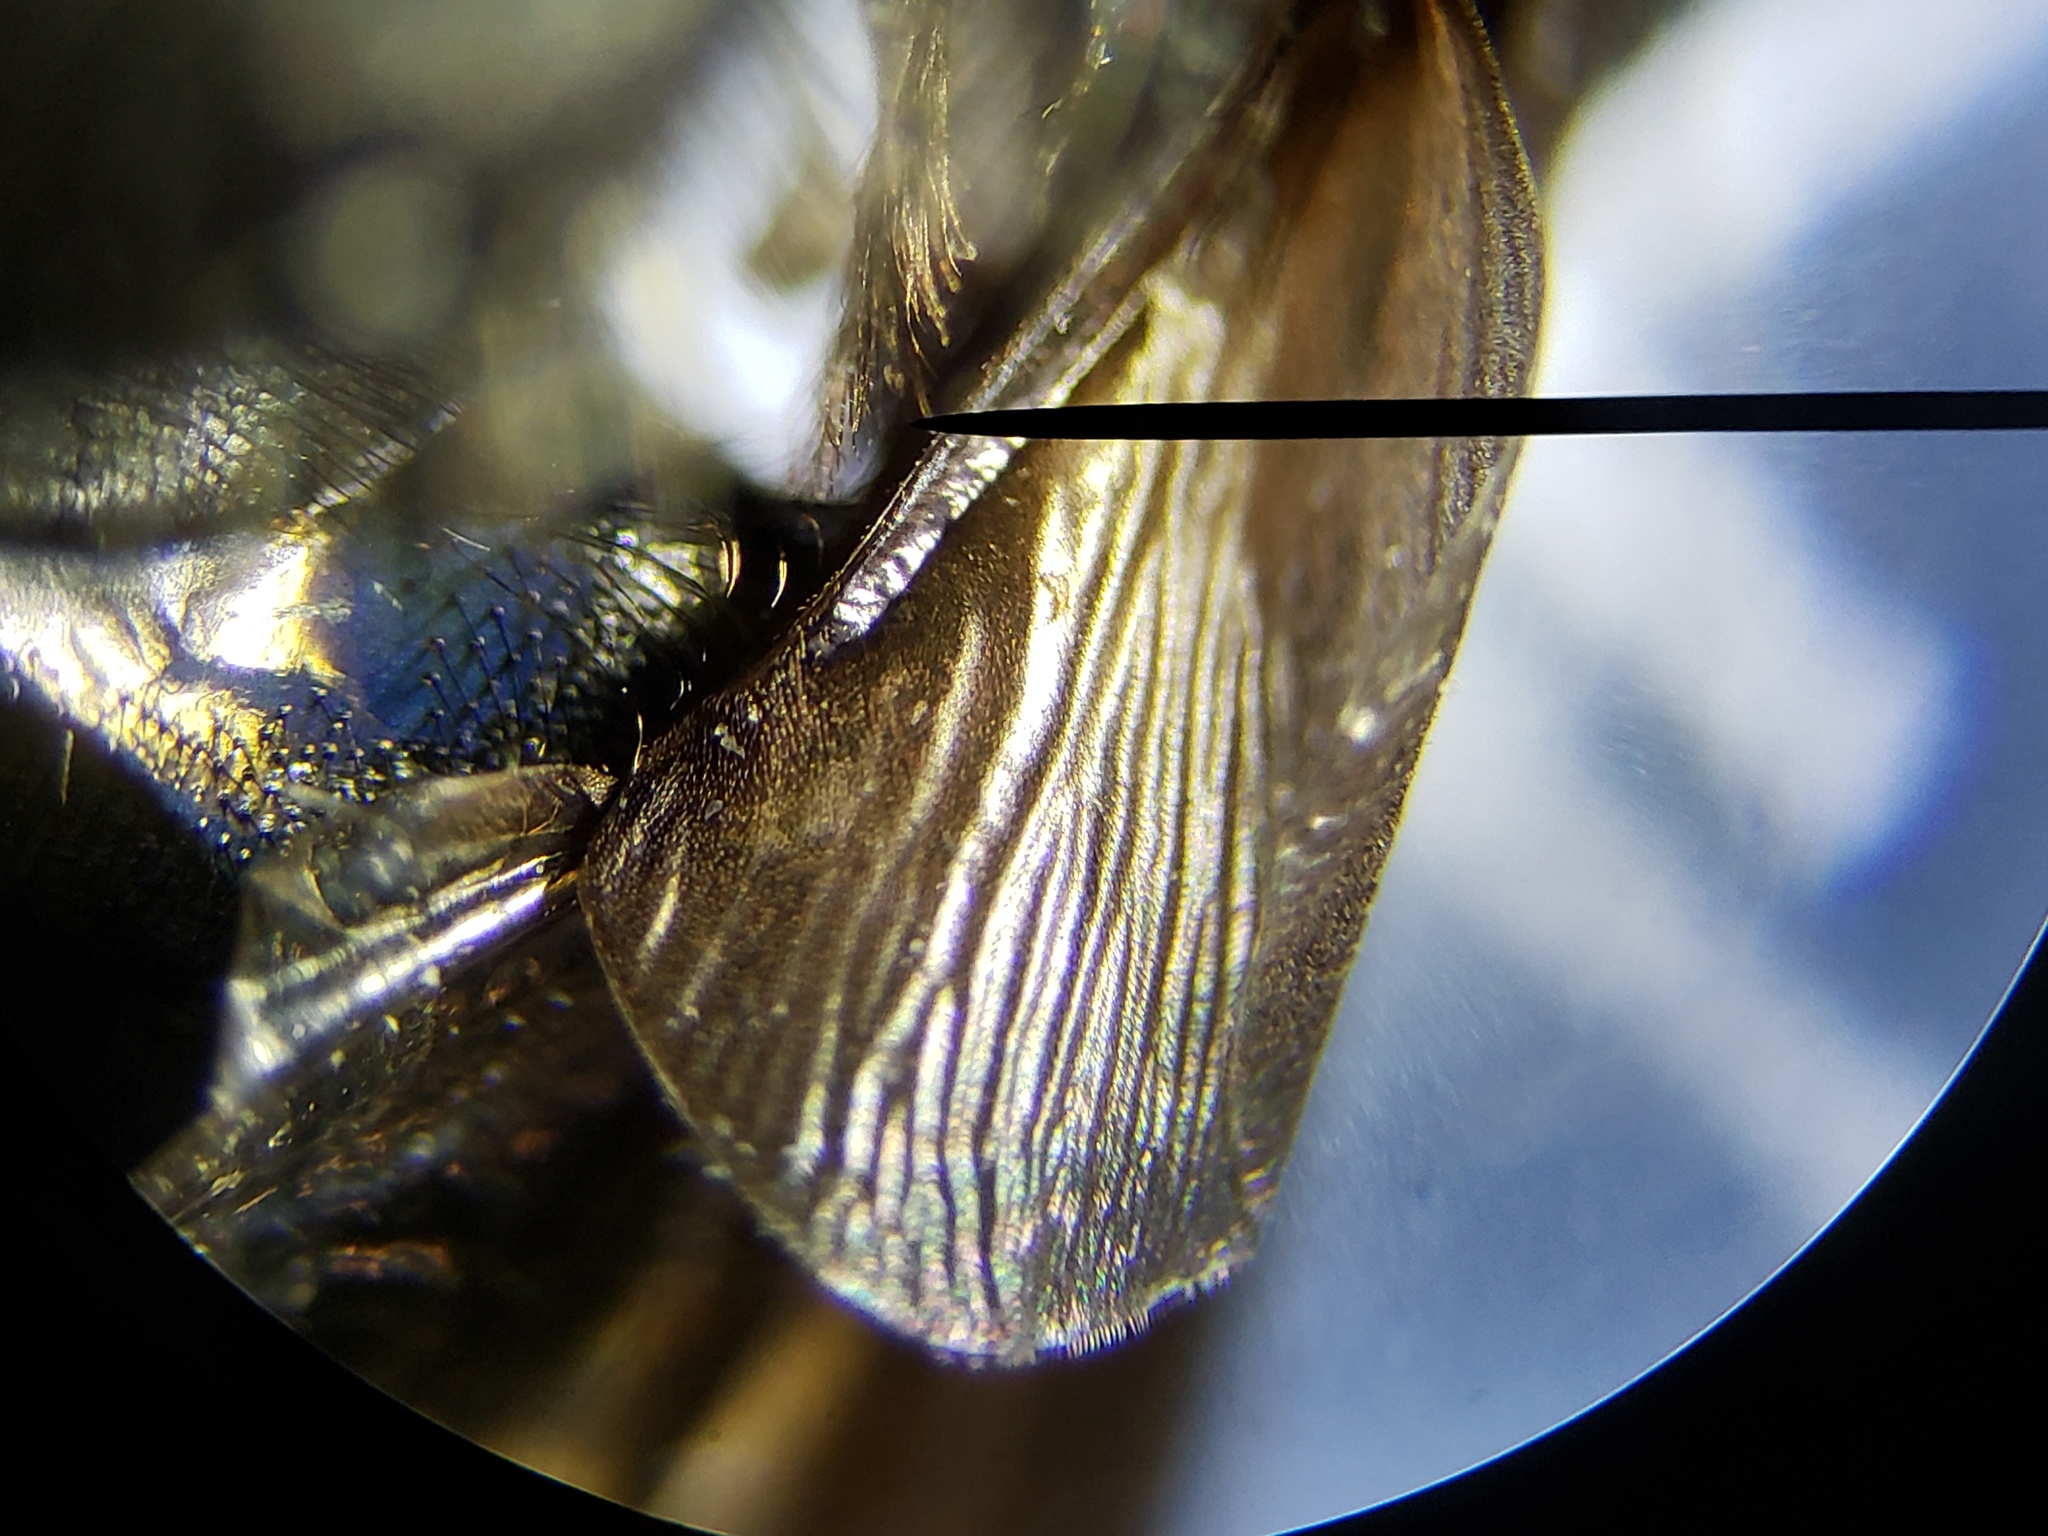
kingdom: Animalia
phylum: Arthropoda
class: Insecta
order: Diptera
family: Syrphidae
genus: Copestylum
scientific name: Copestylum mexicanum
